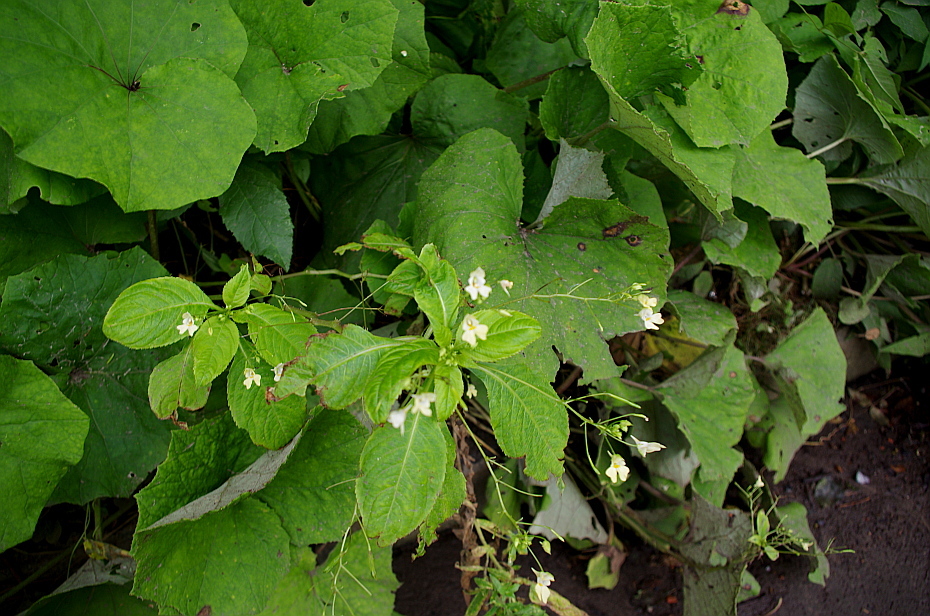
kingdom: Plantae
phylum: Tracheophyta
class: Magnoliopsida
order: Ericales
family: Balsaminaceae
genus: Impatiens
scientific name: Impatiens parviflora
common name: Small balsam
